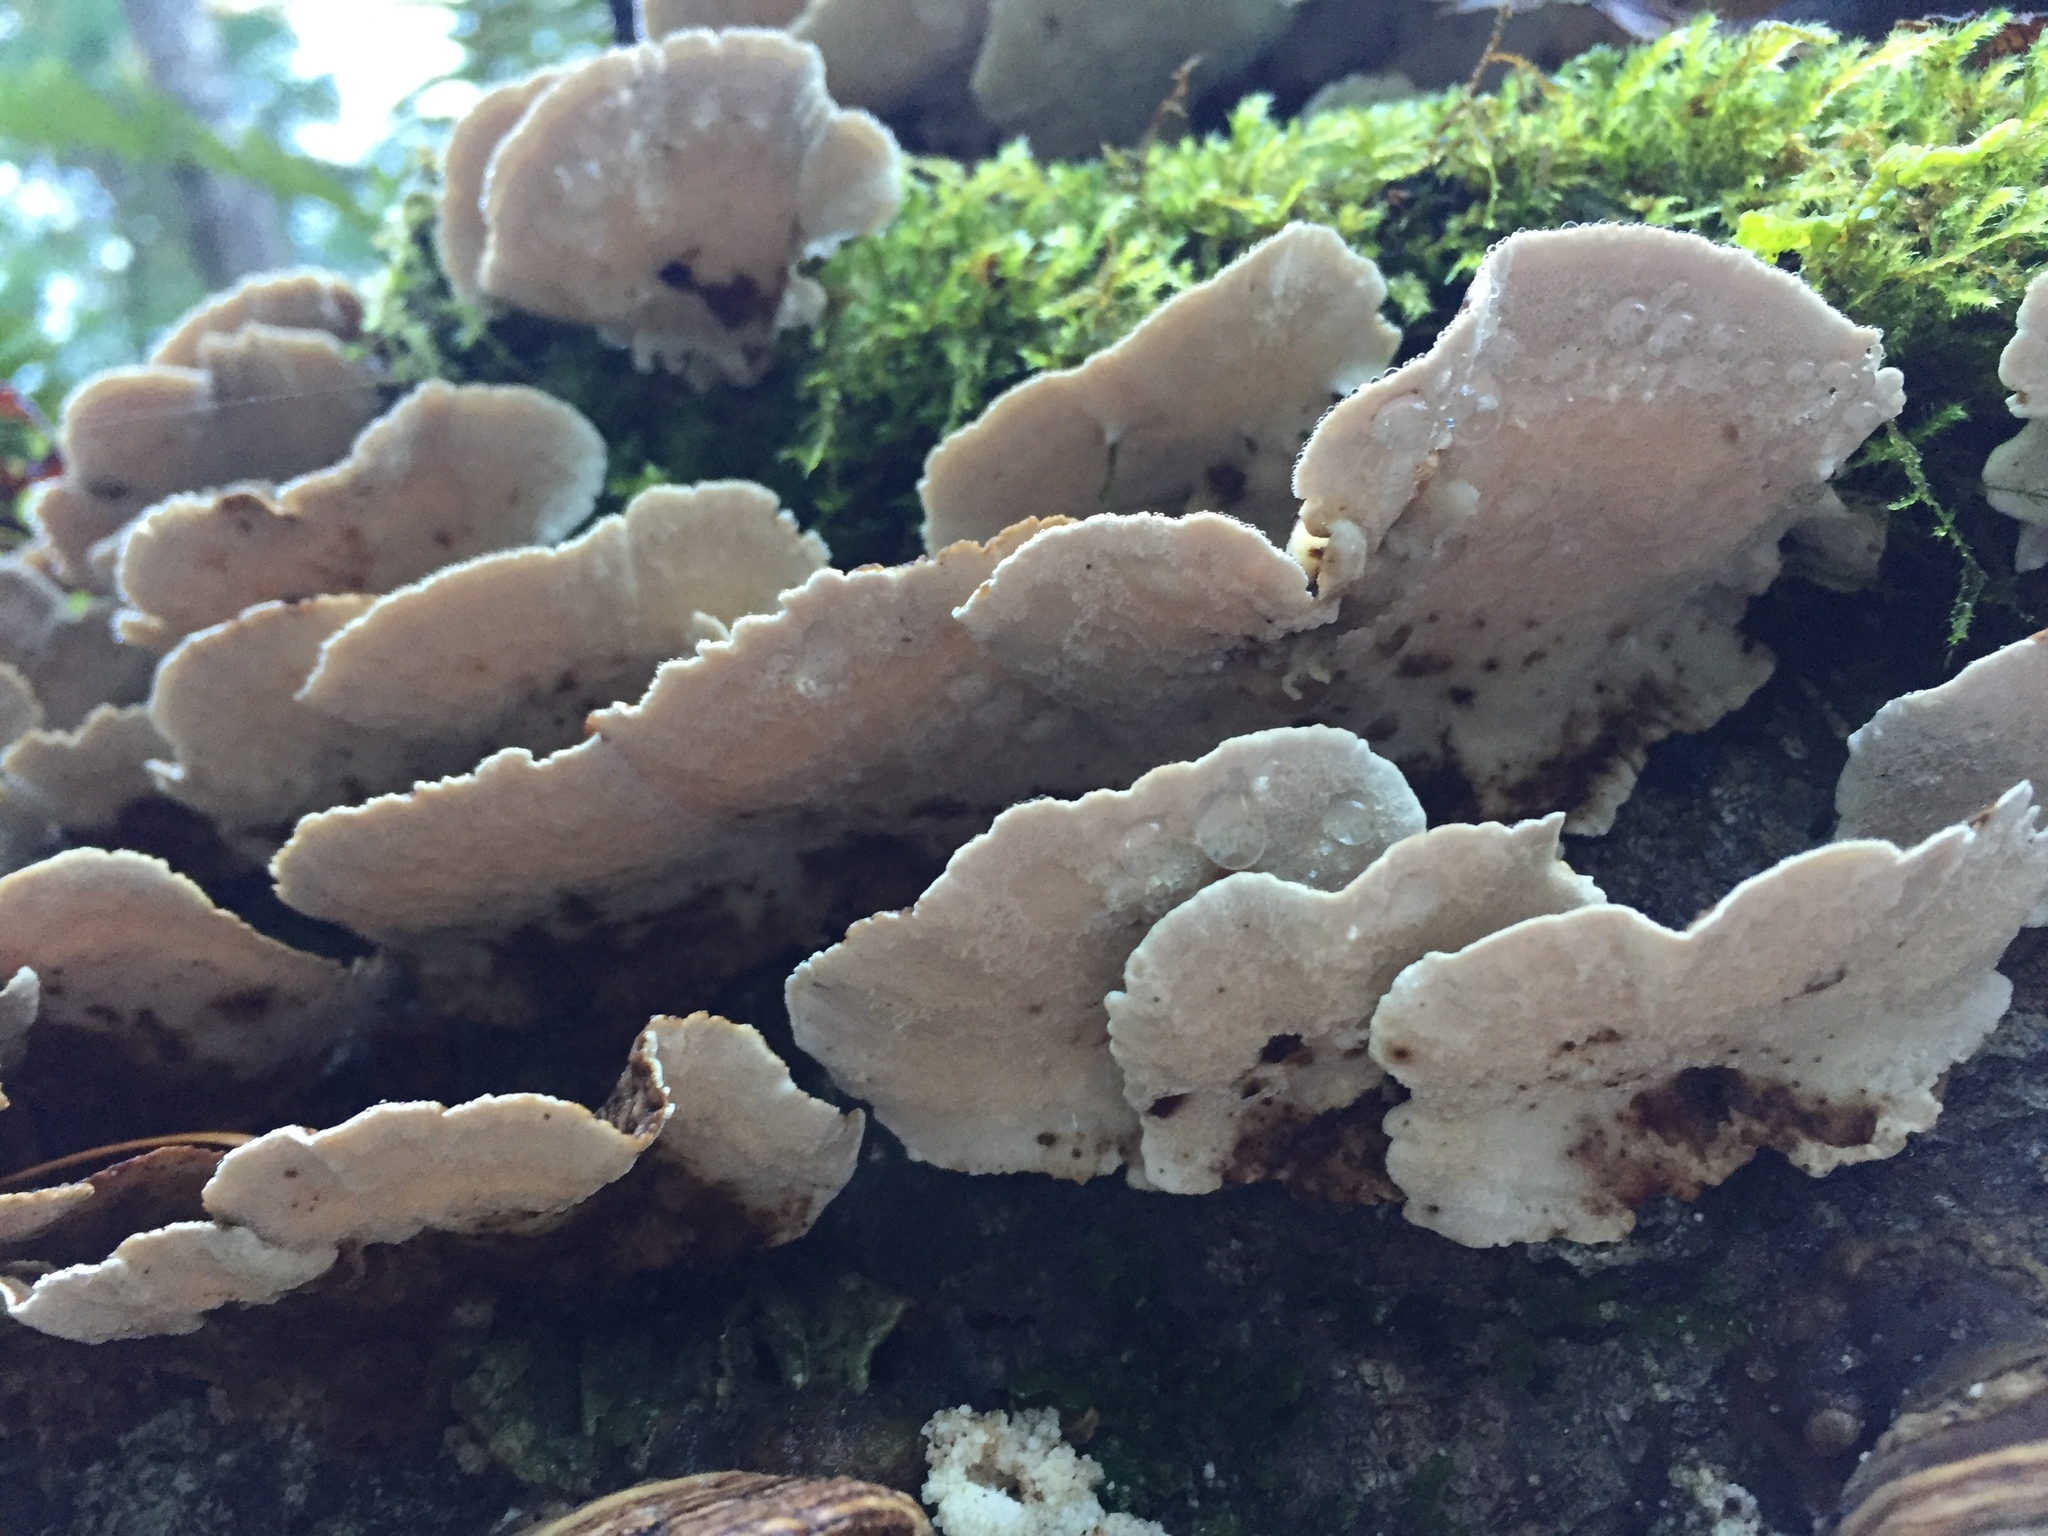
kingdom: Fungi
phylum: Basidiomycota
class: Agaricomycetes
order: Polyporales
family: Polyporaceae
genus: Trametes
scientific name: Trametes versicolor
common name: Turkeytail
